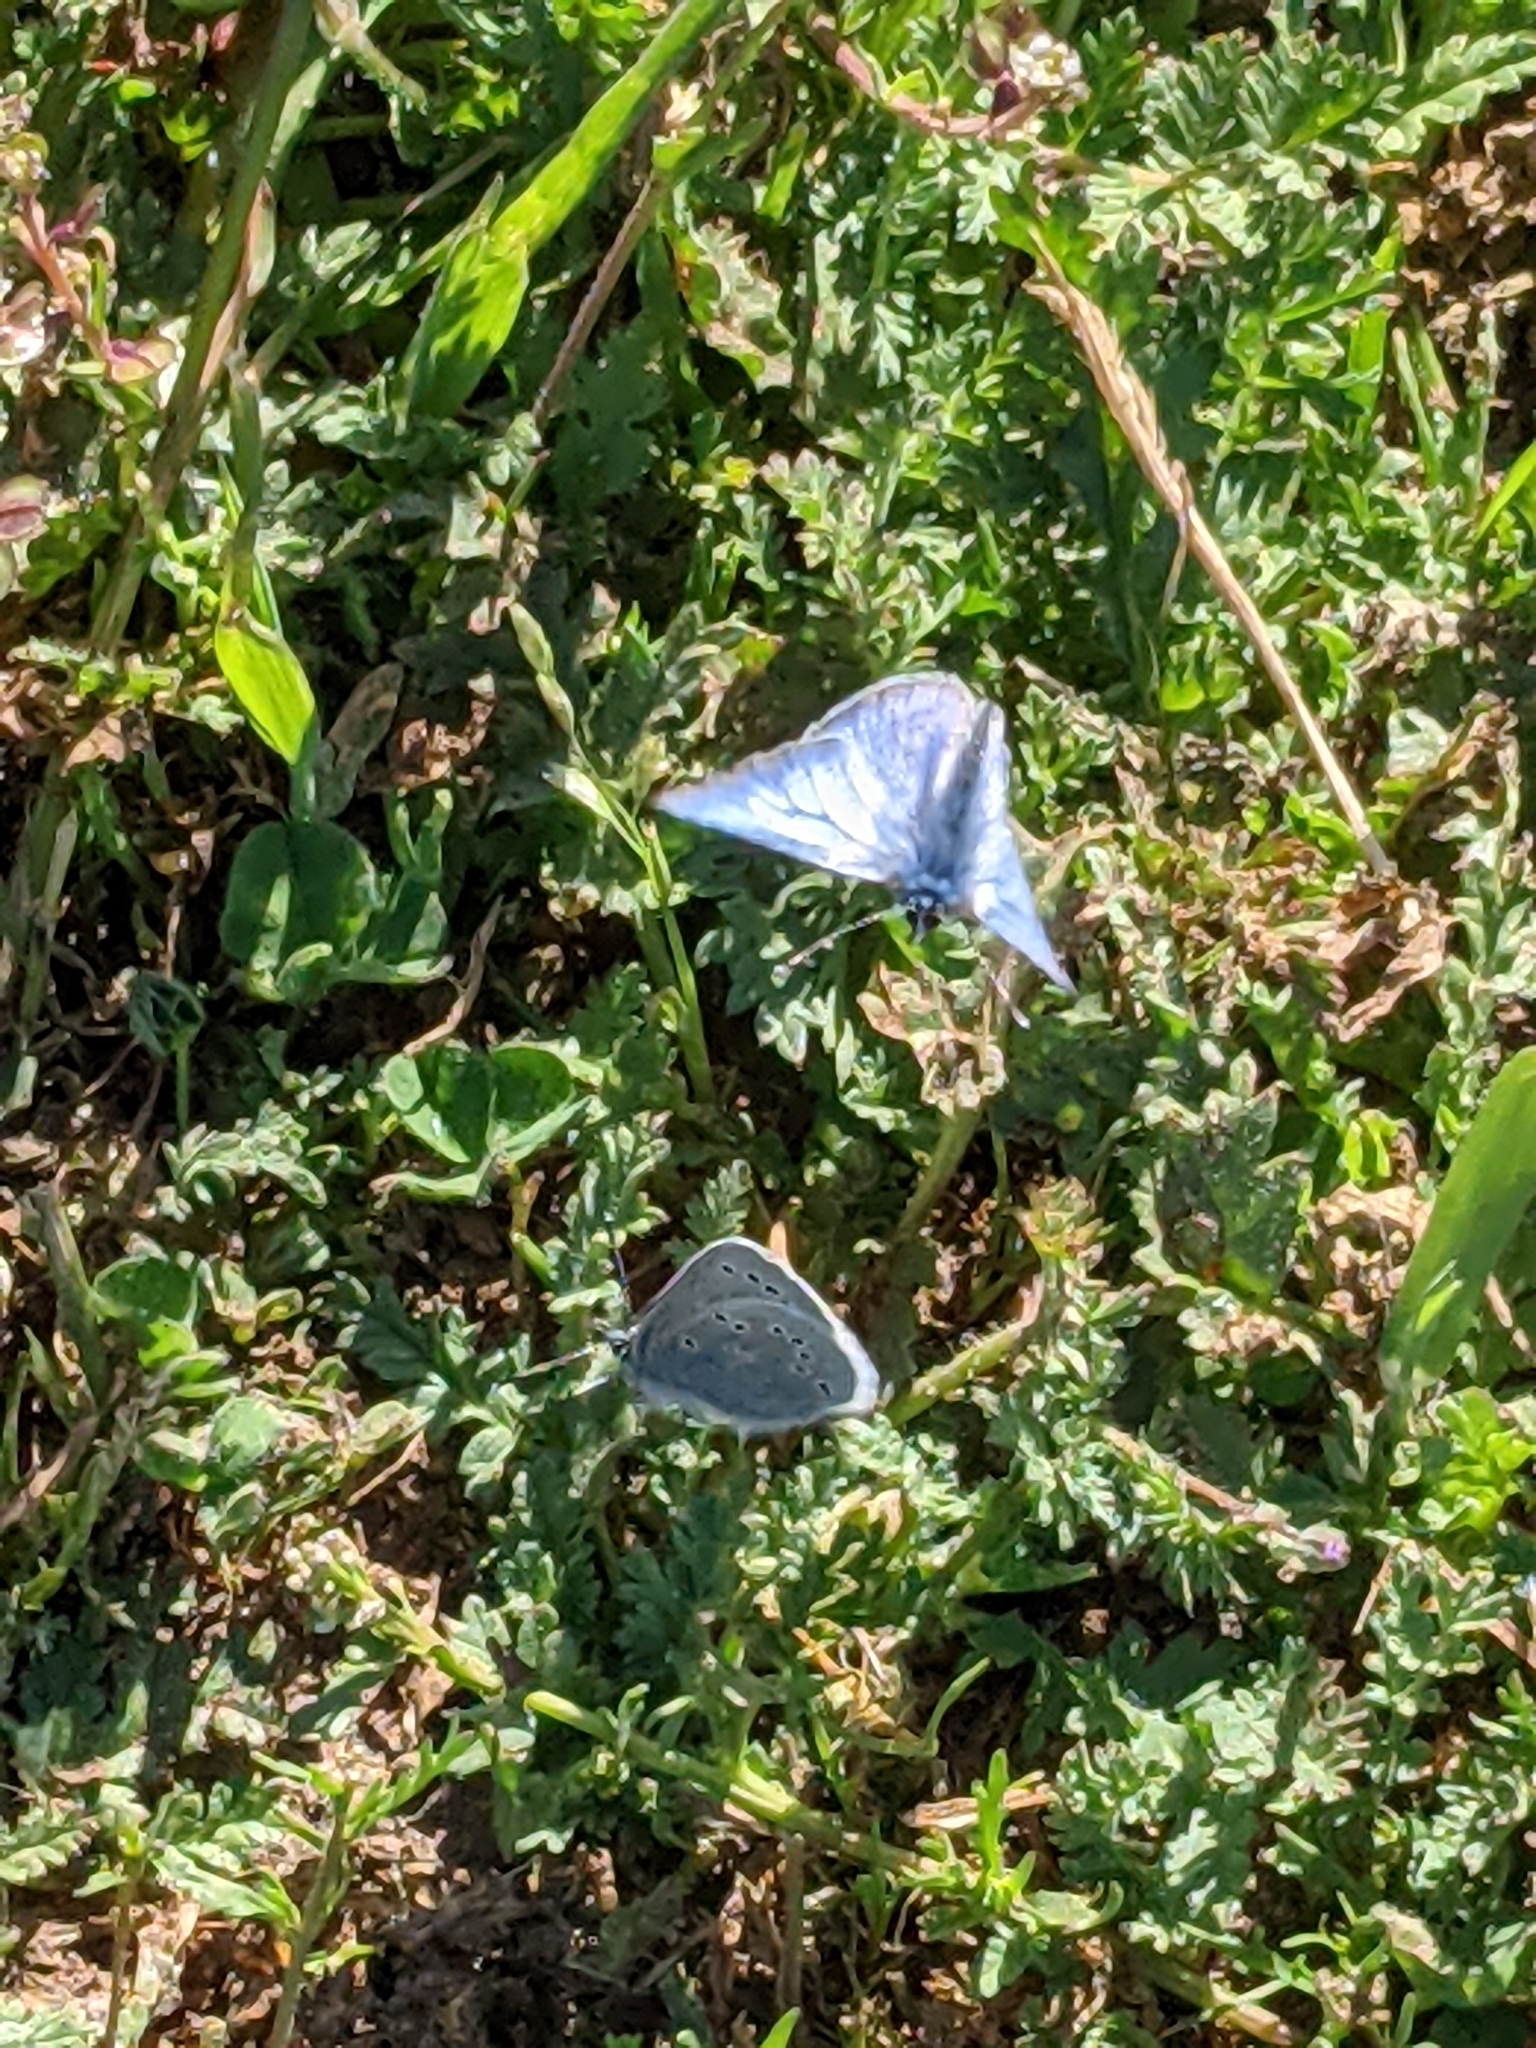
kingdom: Animalia
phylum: Arthropoda
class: Insecta
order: Lepidoptera
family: Lycaenidae
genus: Glaucopsyche
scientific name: Glaucopsyche lygdamus
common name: Silvery blue
